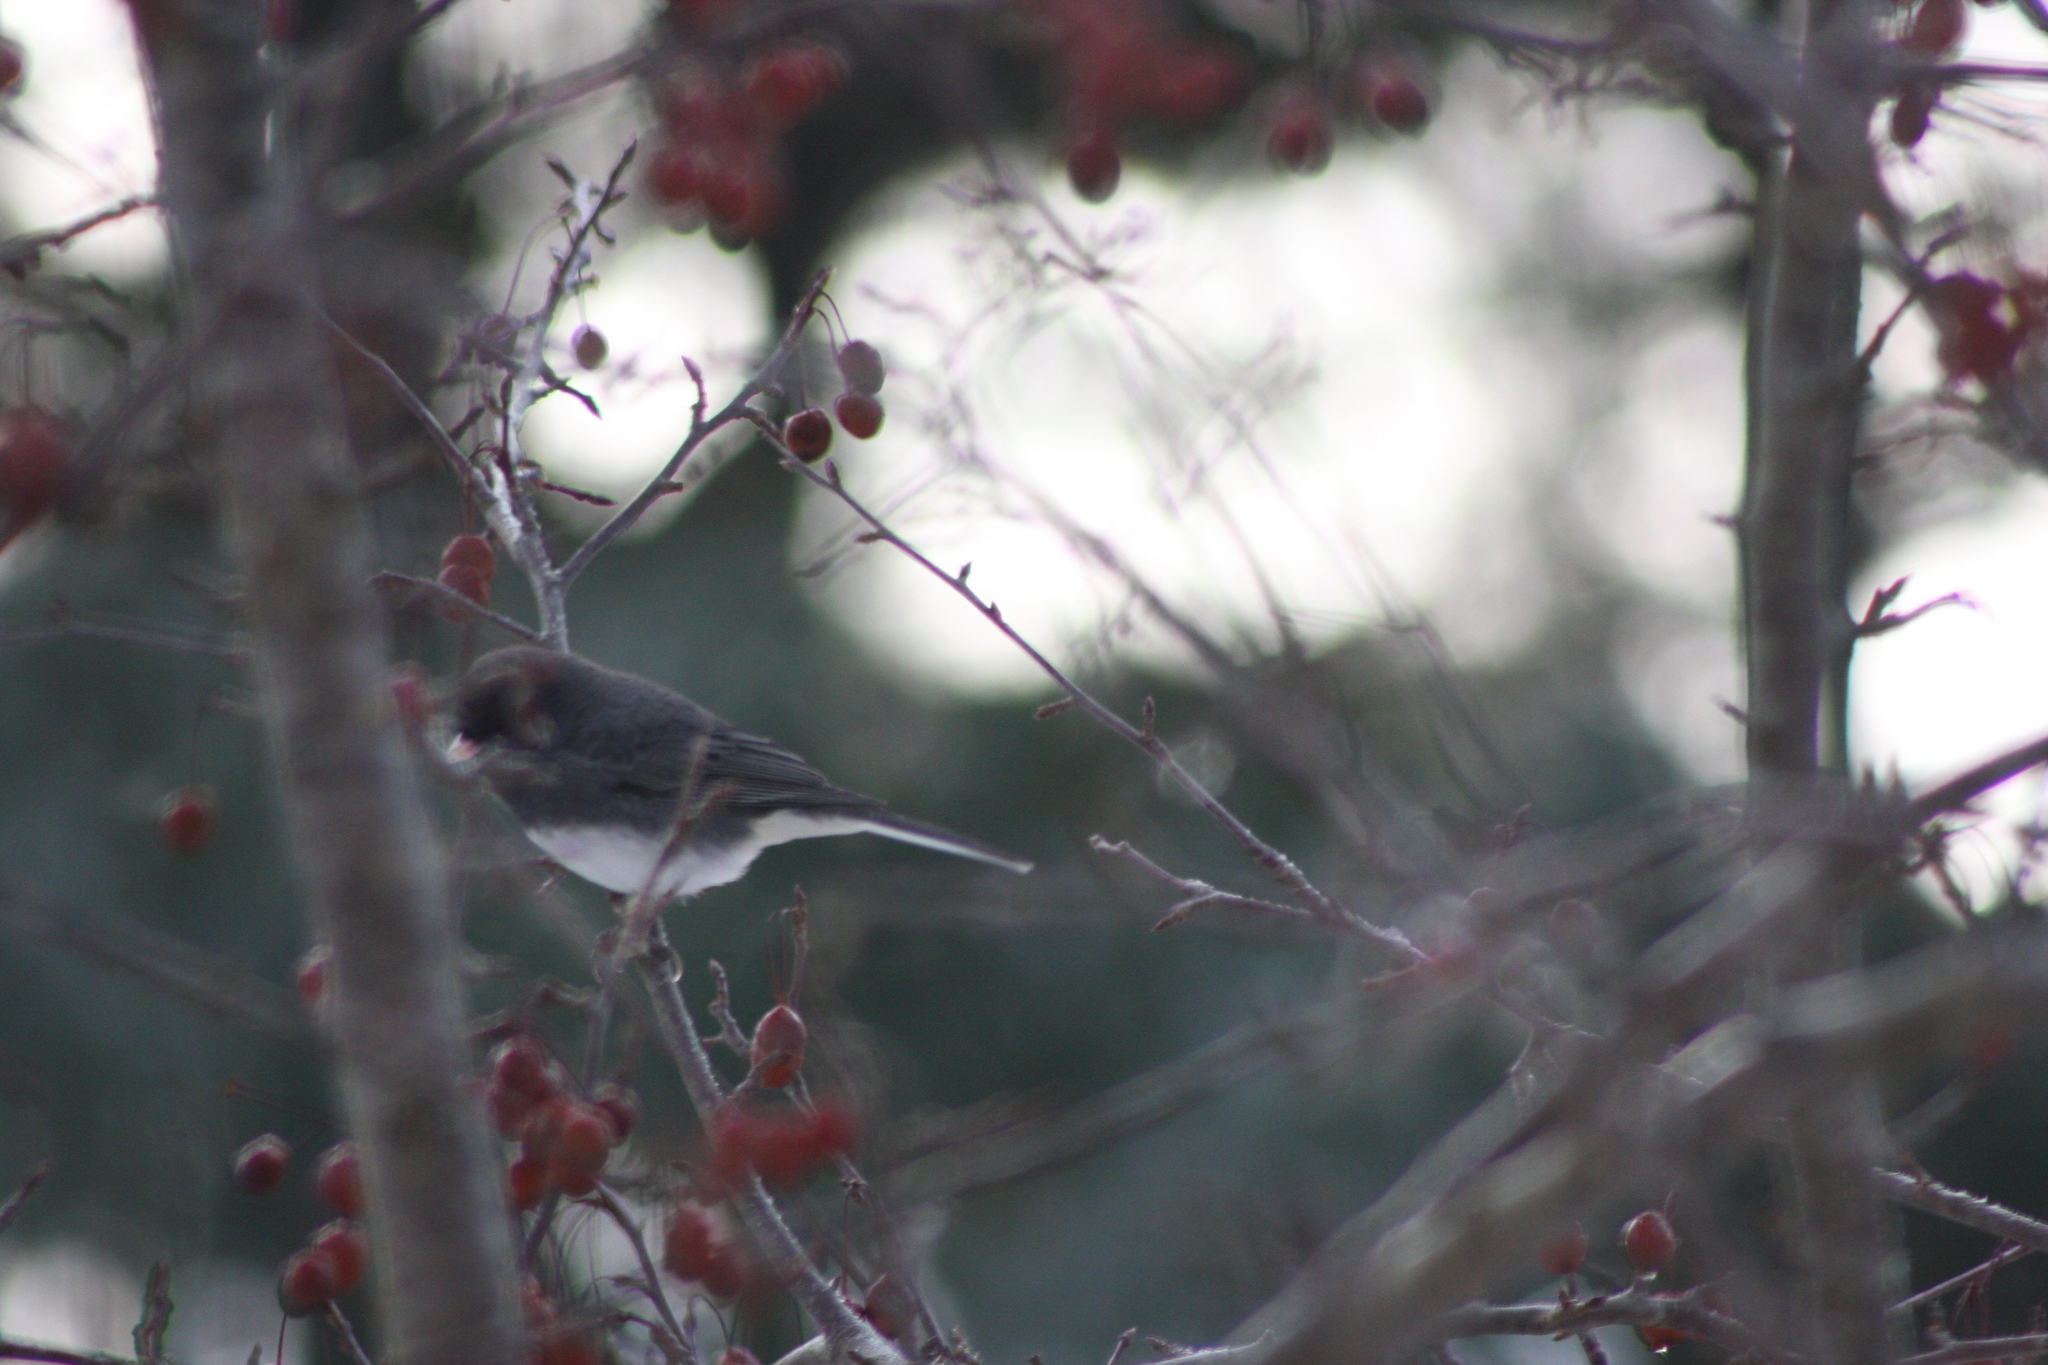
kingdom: Animalia
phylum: Chordata
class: Aves
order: Passeriformes
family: Passerellidae
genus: Junco
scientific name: Junco hyemalis
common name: Dark-eyed junco
